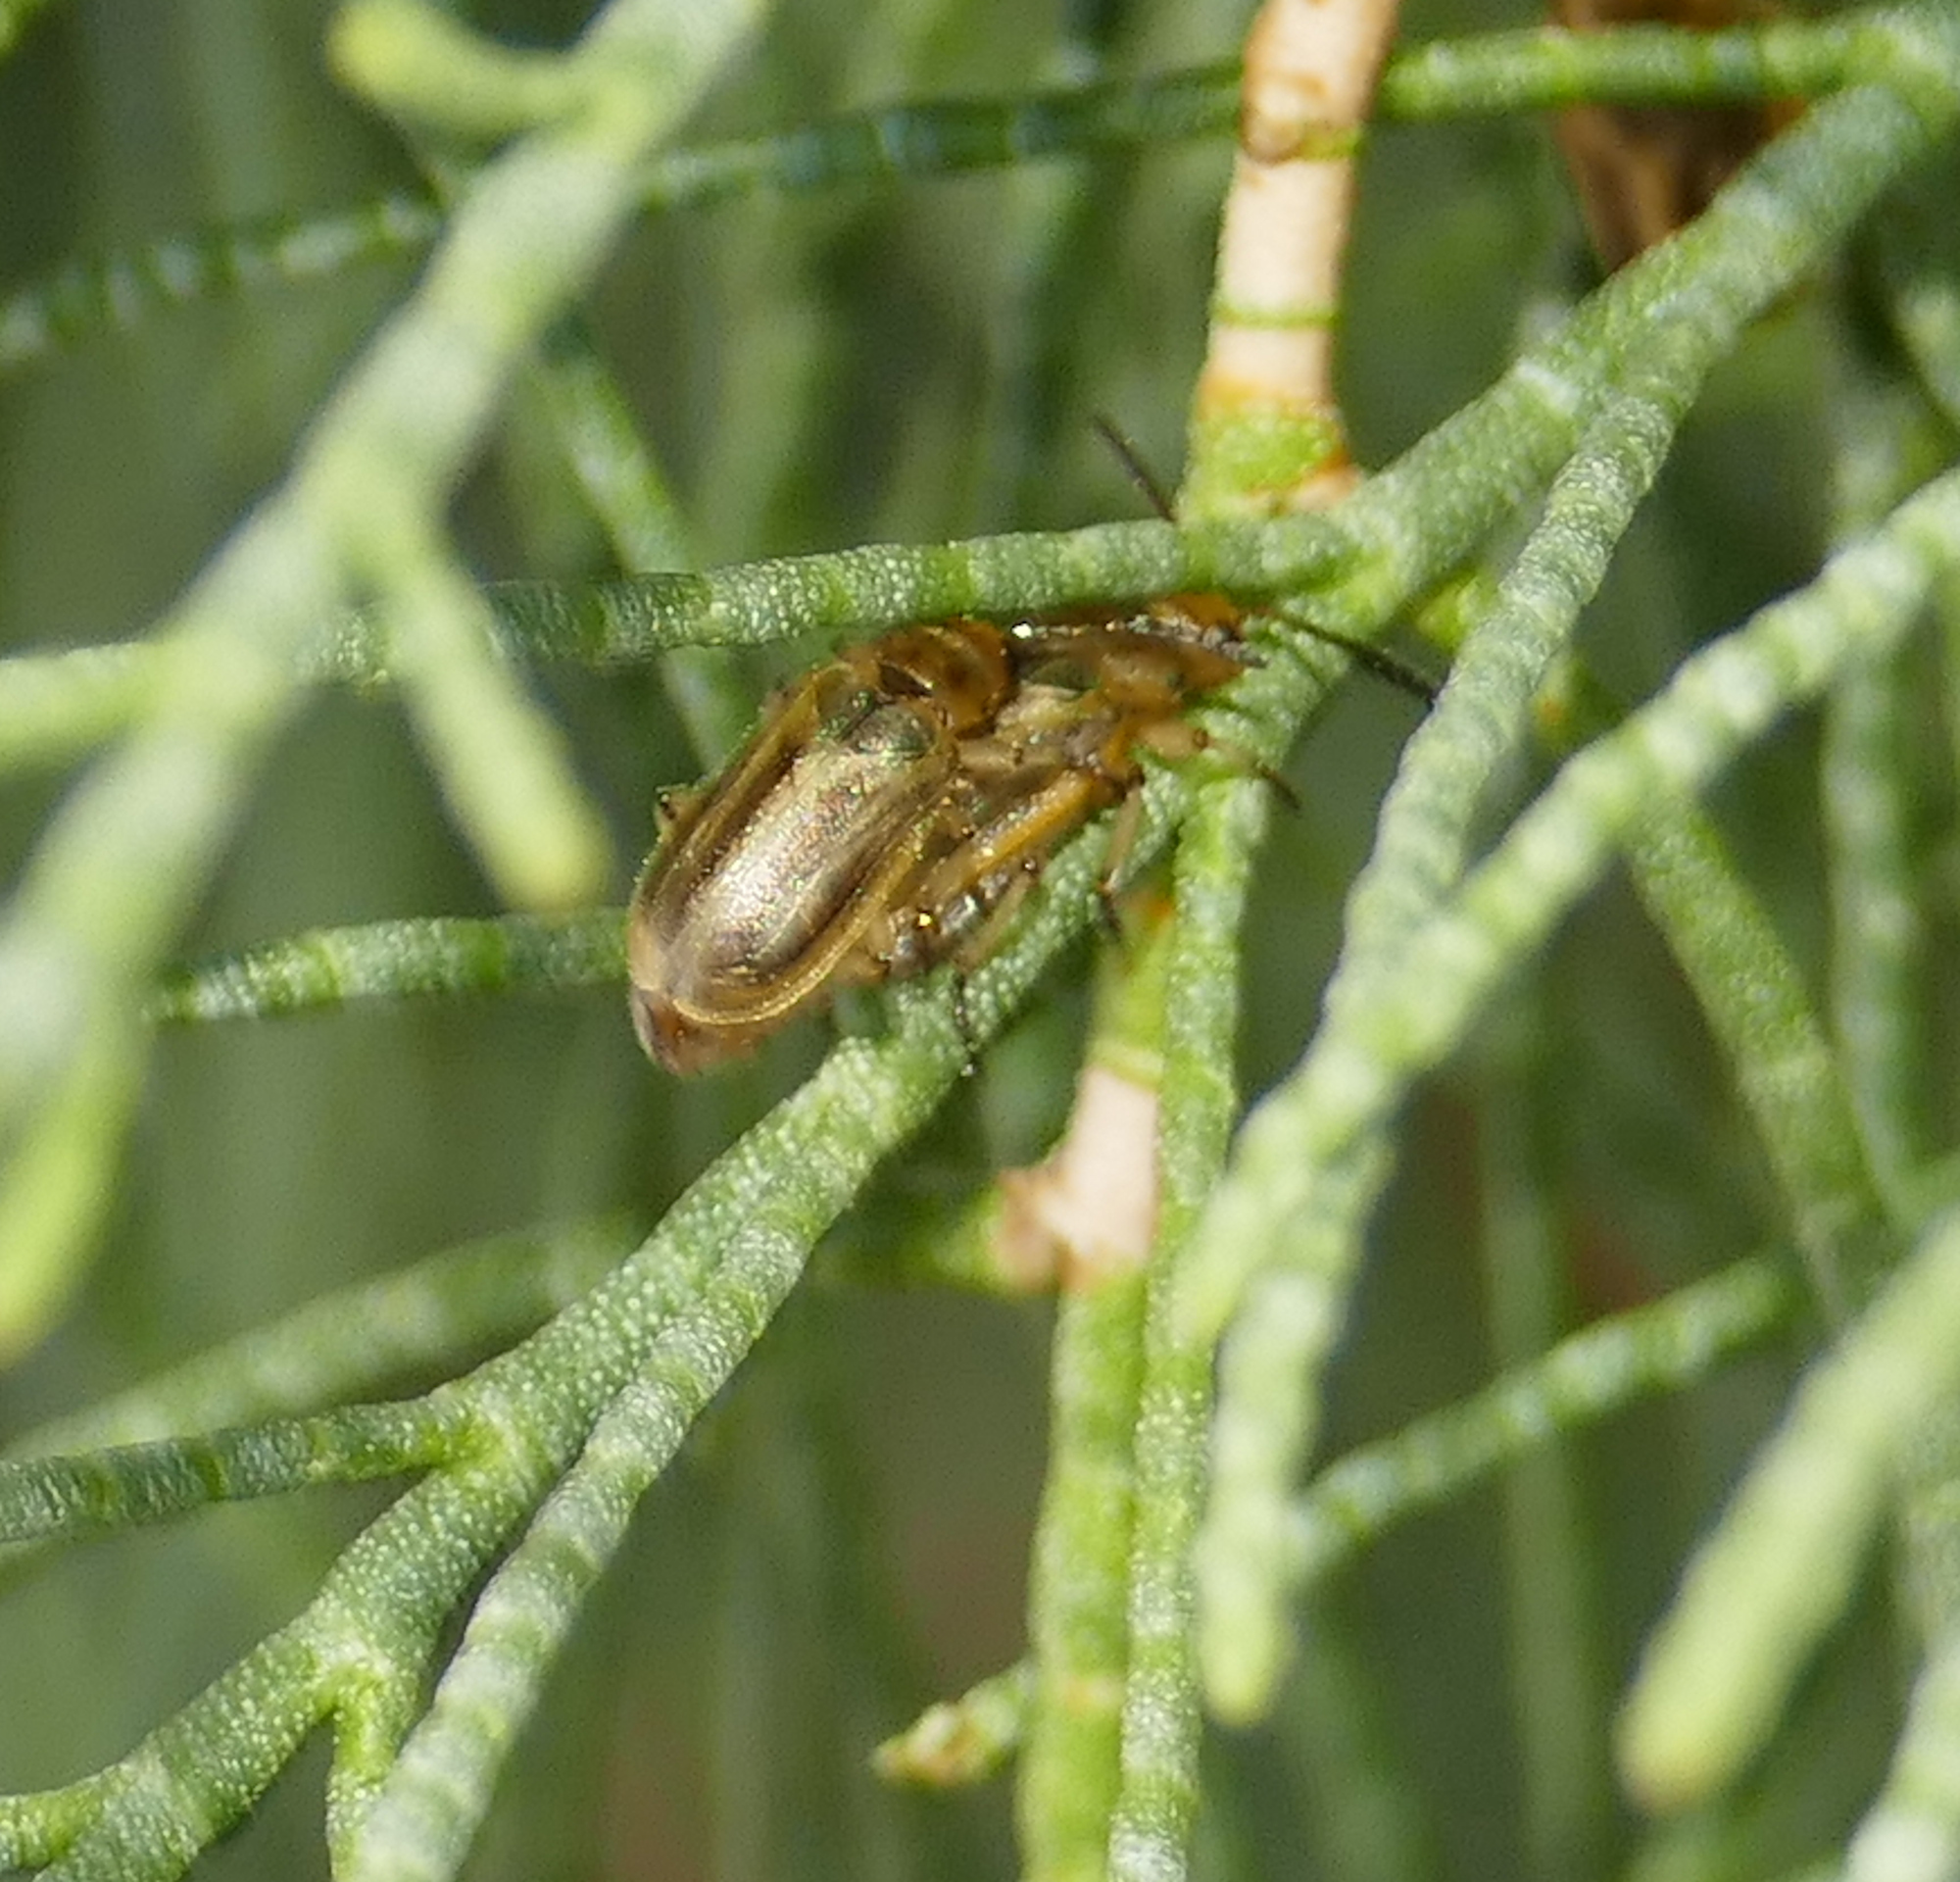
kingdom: Animalia
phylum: Arthropoda
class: Insecta
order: Coleoptera
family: Chrysomelidae
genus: Diorhabda
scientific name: Diorhabda
